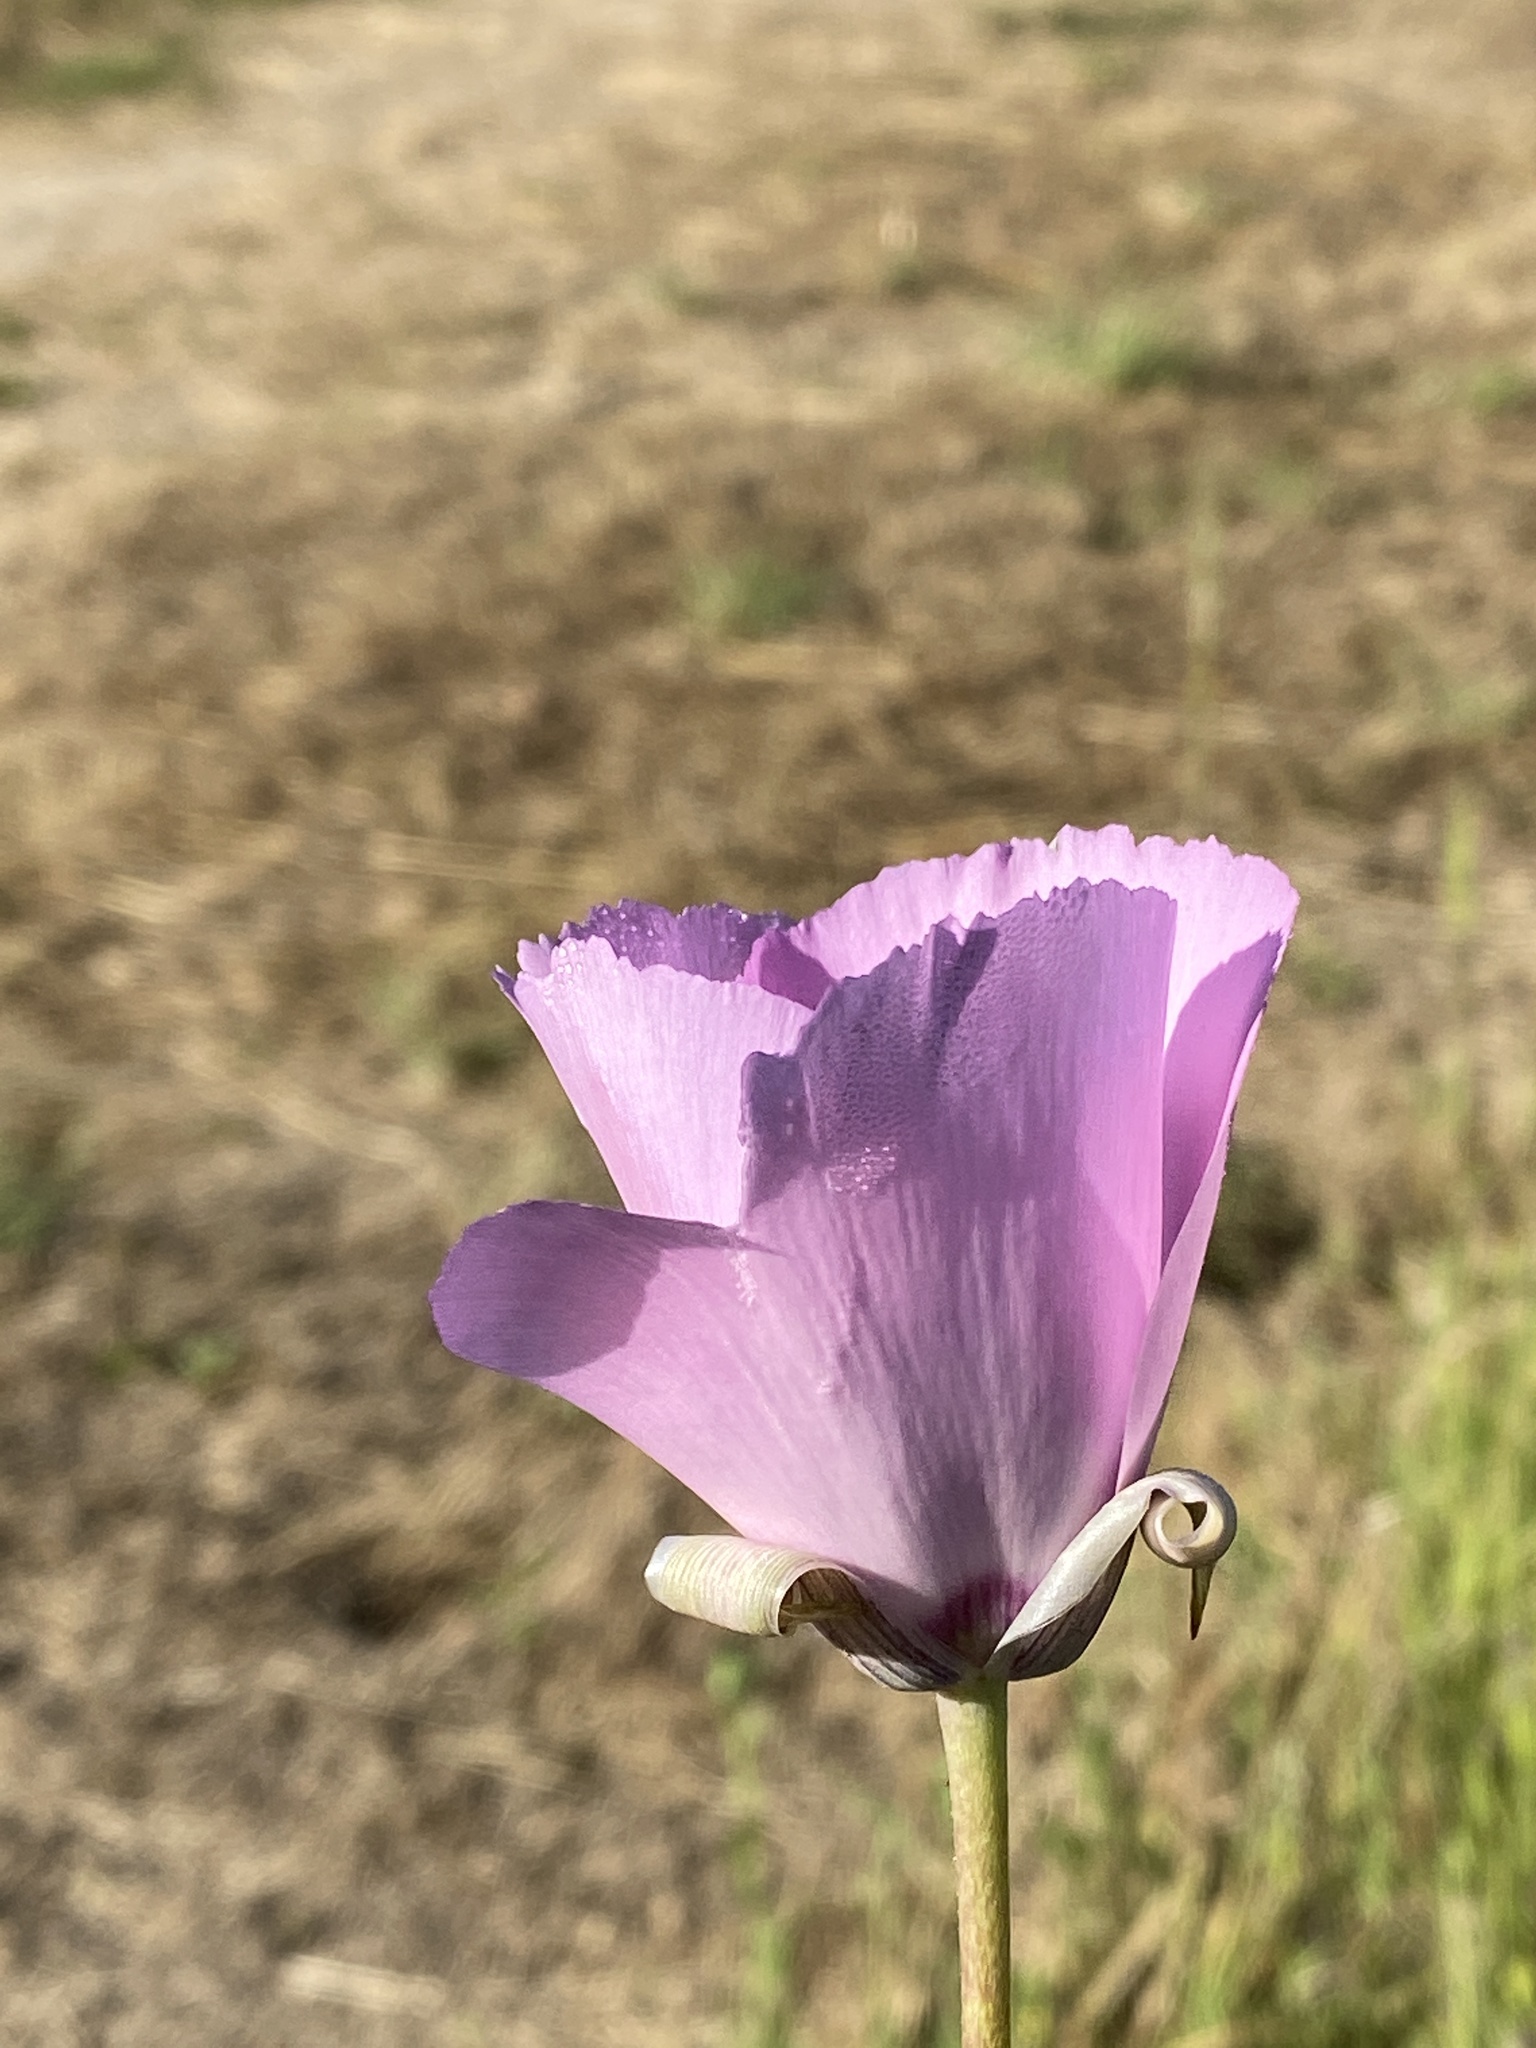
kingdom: Plantae
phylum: Tracheophyta
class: Liliopsida
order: Liliales
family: Liliaceae
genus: Calochortus
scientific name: Calochortus splendens
